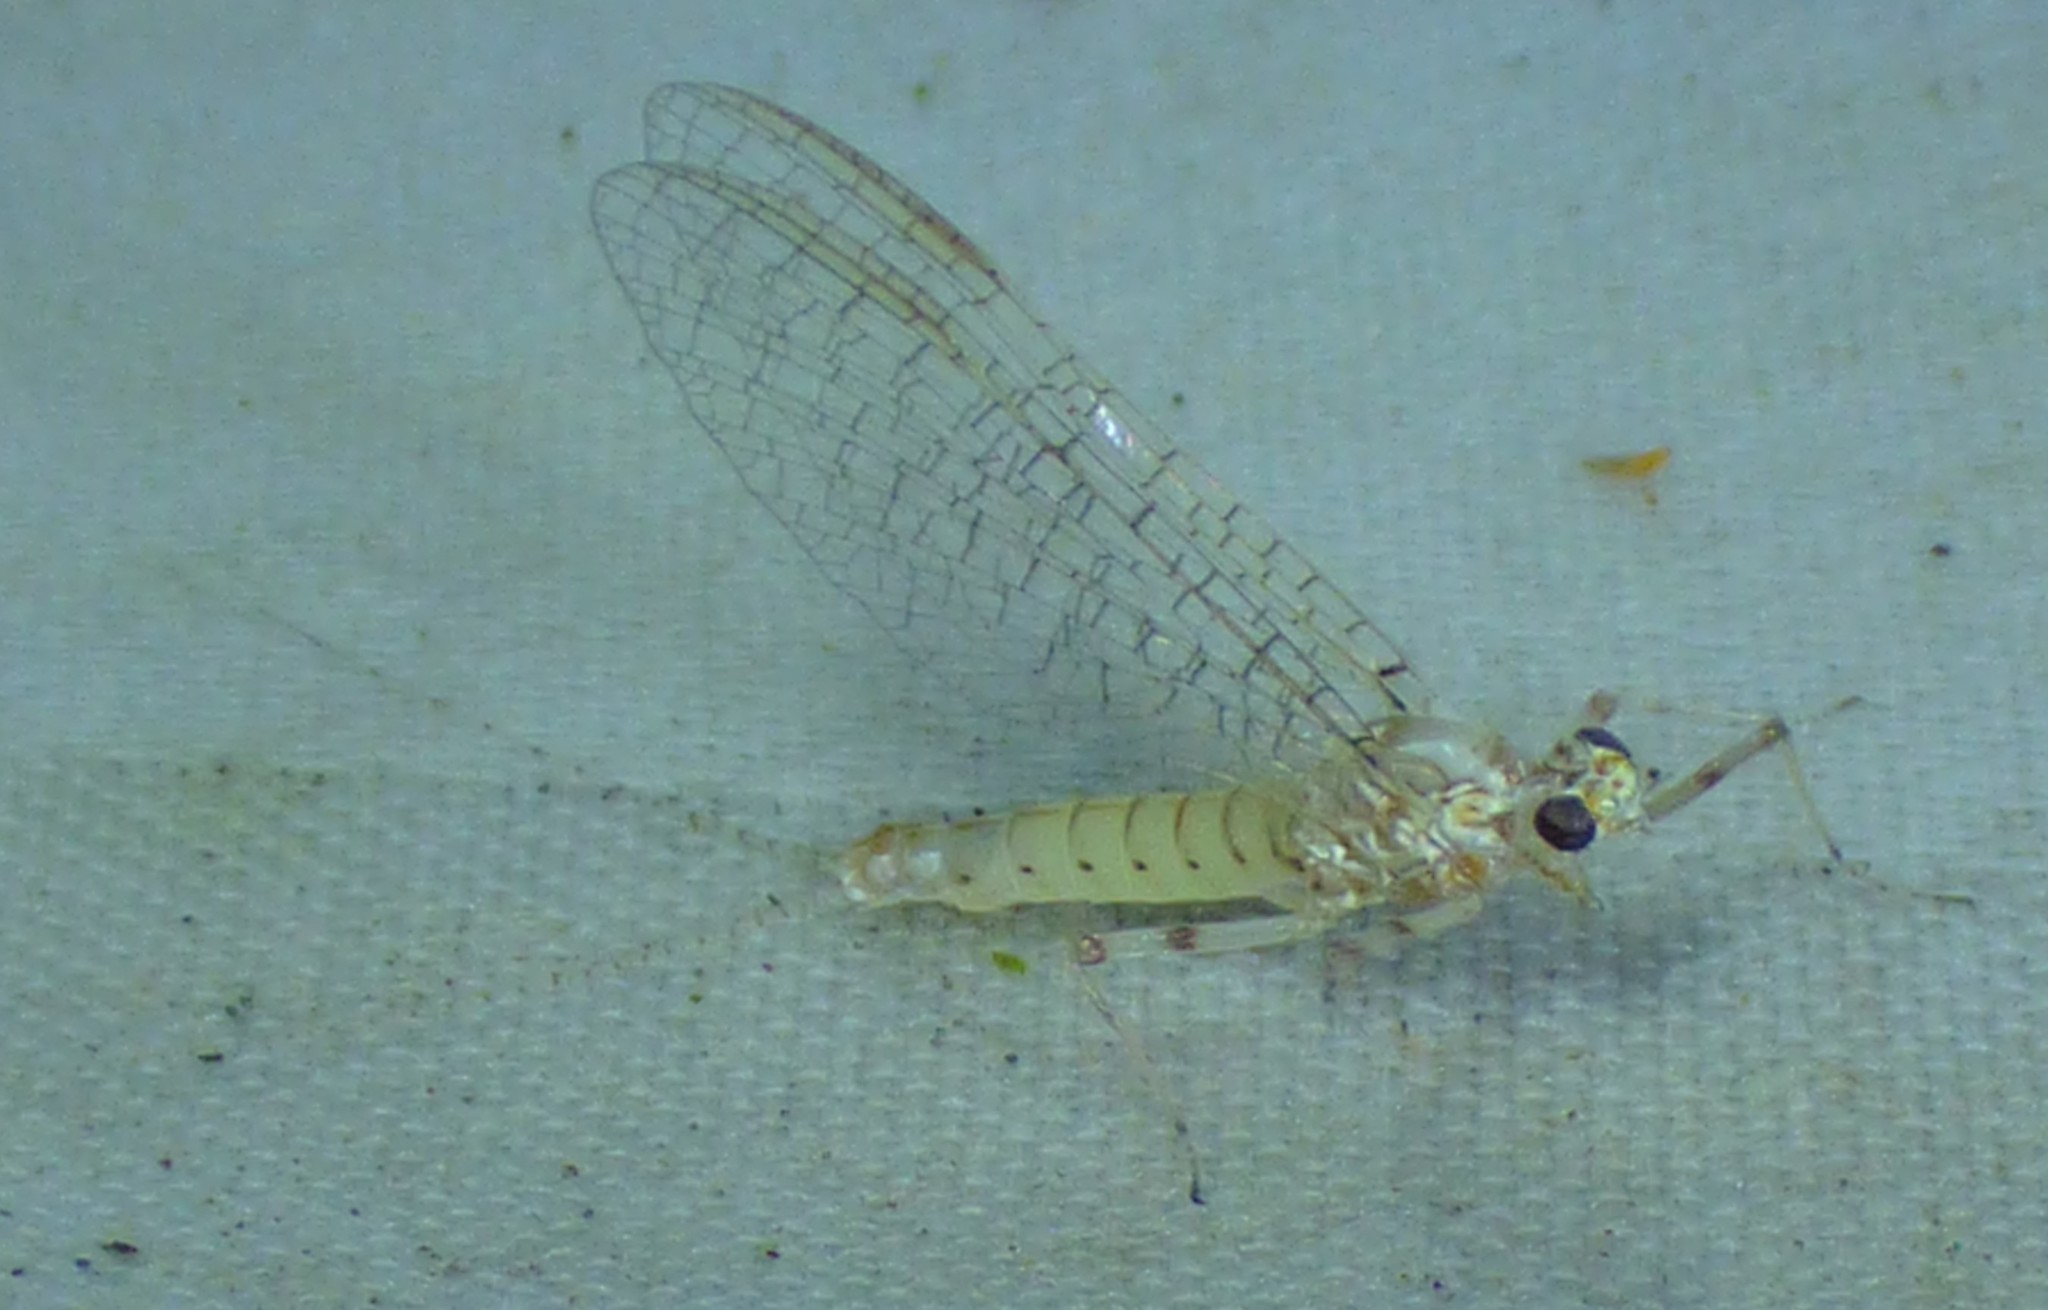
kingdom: Animalia
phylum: Arthropoda
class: Insecta
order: Ephemeroptera
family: Heptageniidae
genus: Maccaffertium
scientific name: Maccaffertium mediopunctatum
